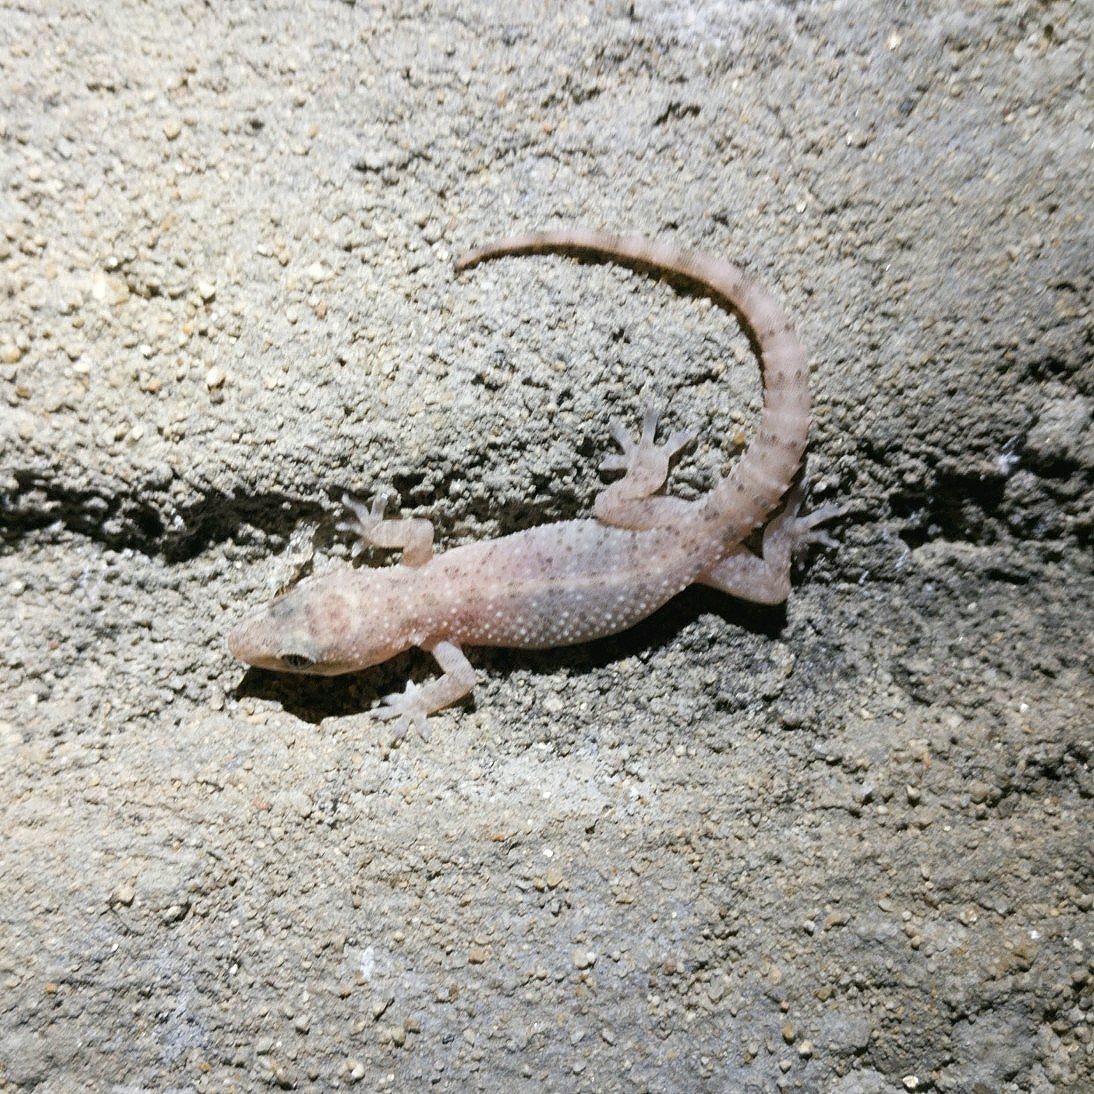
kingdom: Animalia
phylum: Chordata
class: Squamata
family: Gekkonidae
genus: Hemidactylus
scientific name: Hemidactylus brookii
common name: Brook's house gecko
